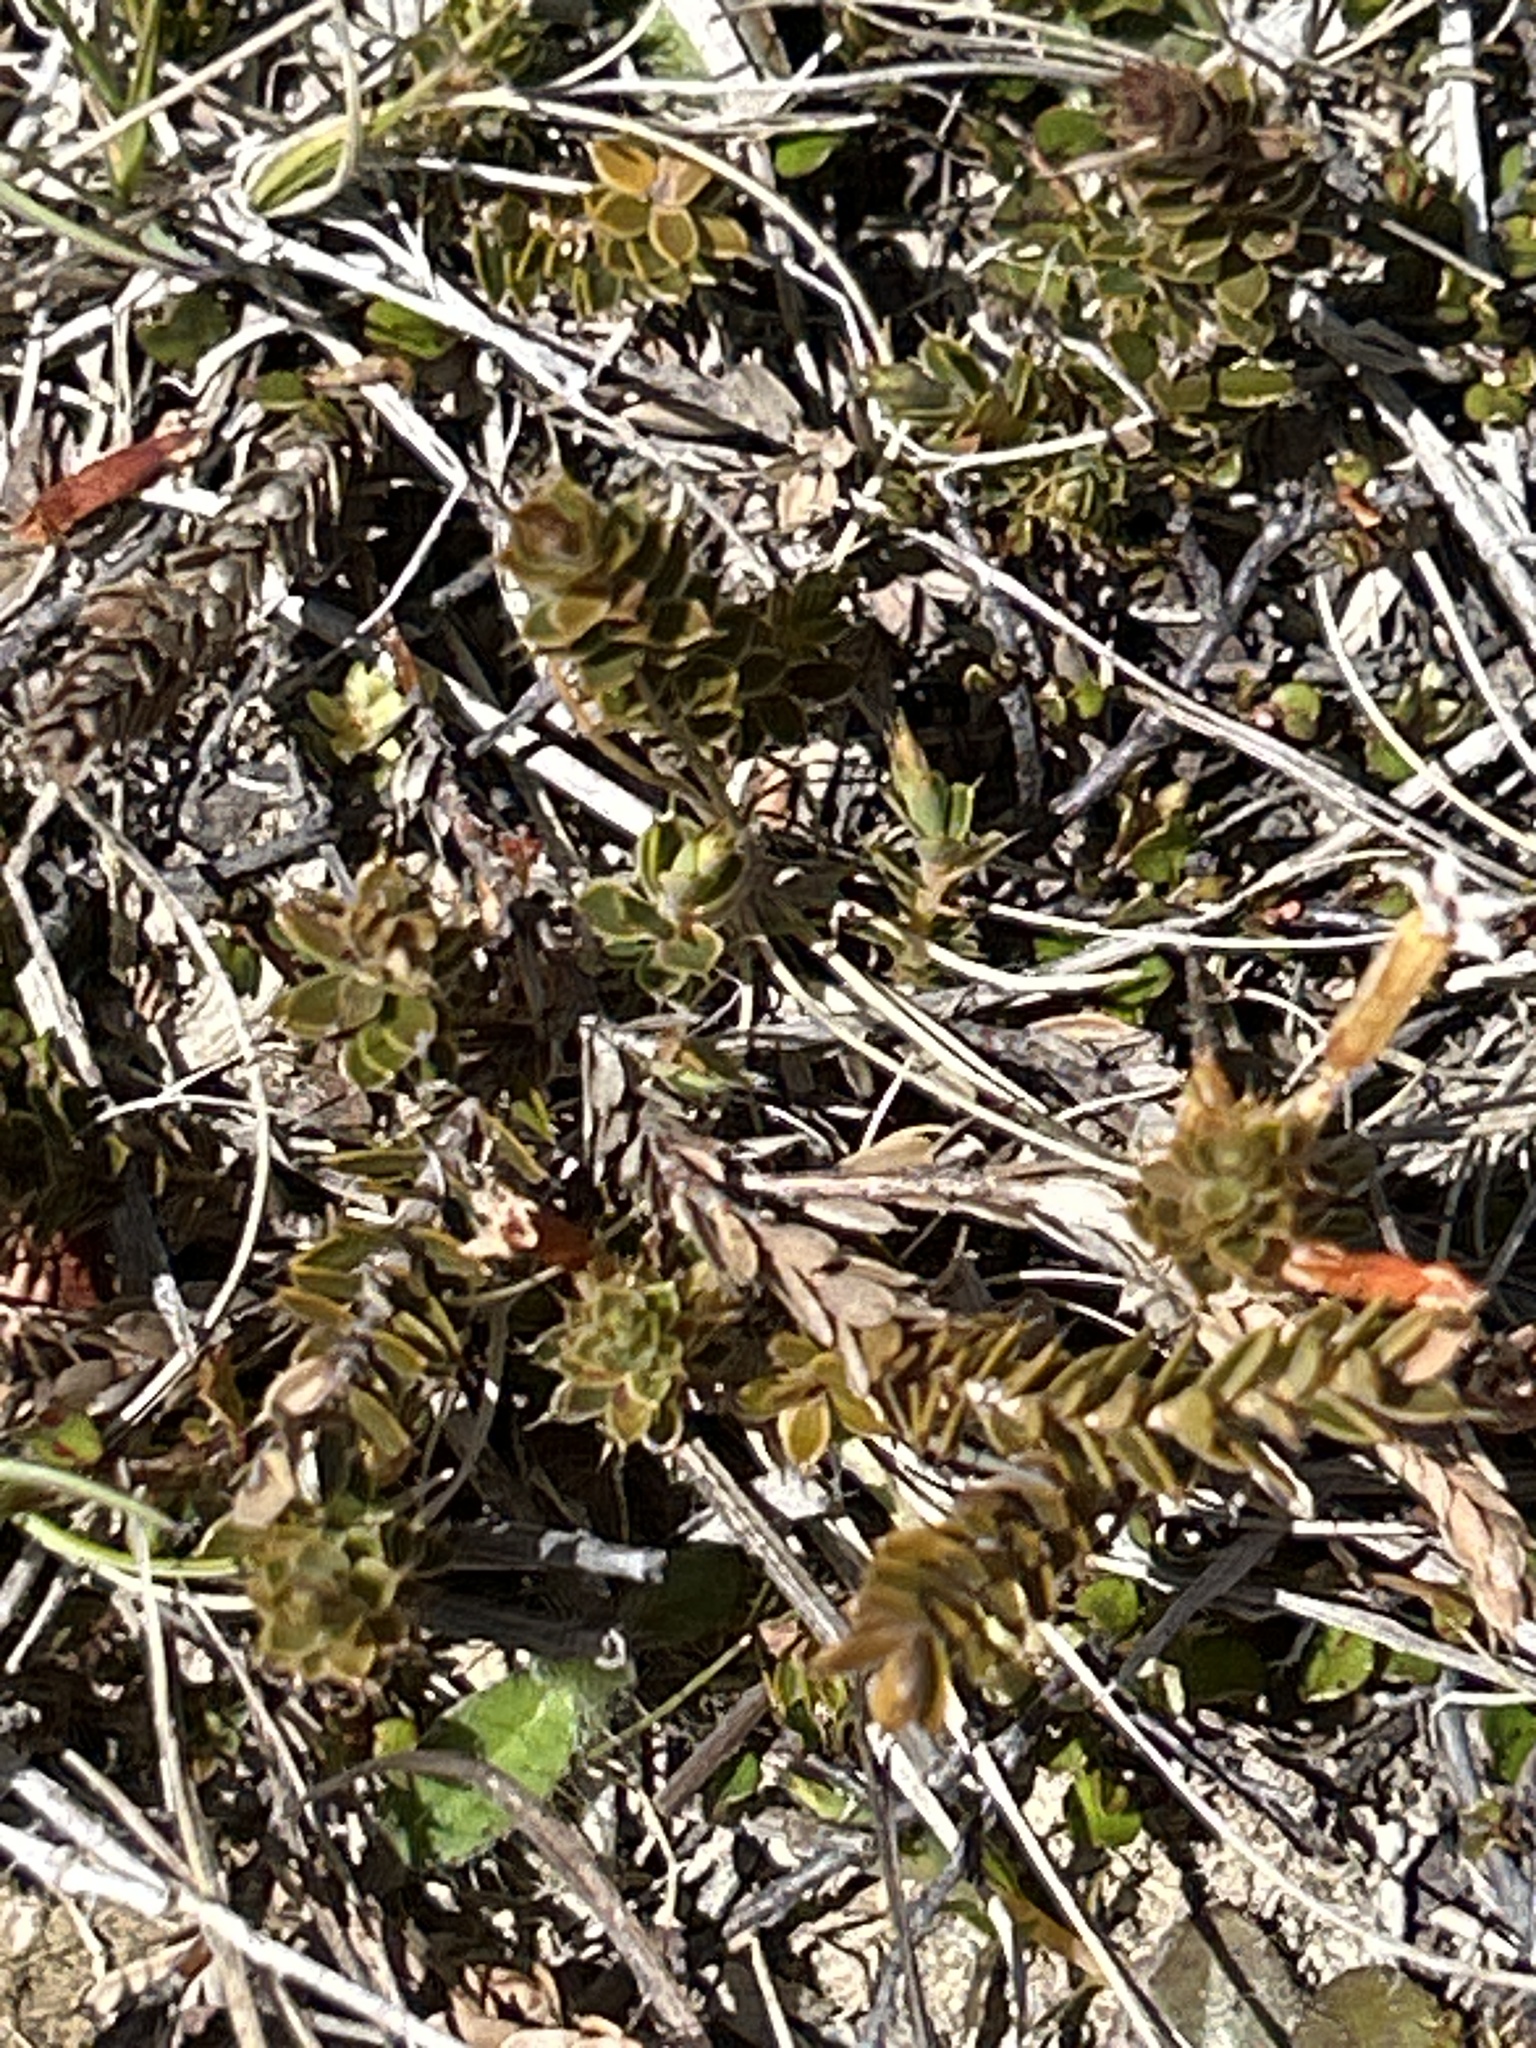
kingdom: Plantae
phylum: Tracheophyta
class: Magnoliopsida
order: Ericales
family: Ericaceae
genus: Styphelia
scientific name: Styphelia nesophila
